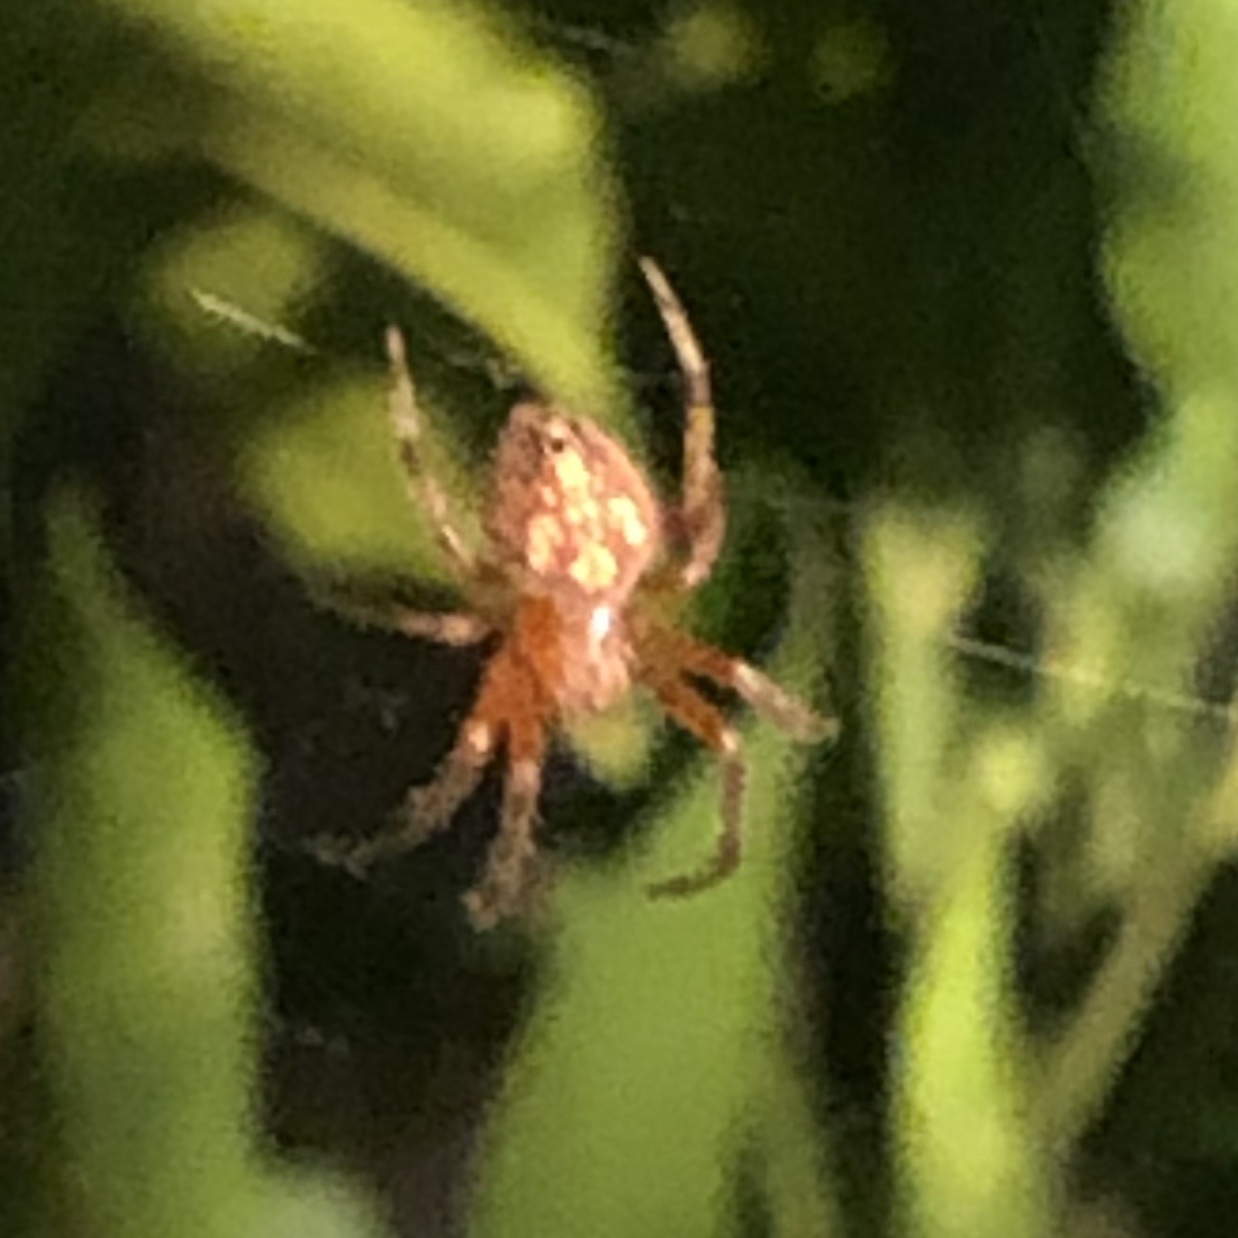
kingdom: Animalia
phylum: Arthropoda
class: Arachnida
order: Araneae
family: Araneidae
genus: Eriophora
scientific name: Eriophora ravilla
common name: Orb weavers
